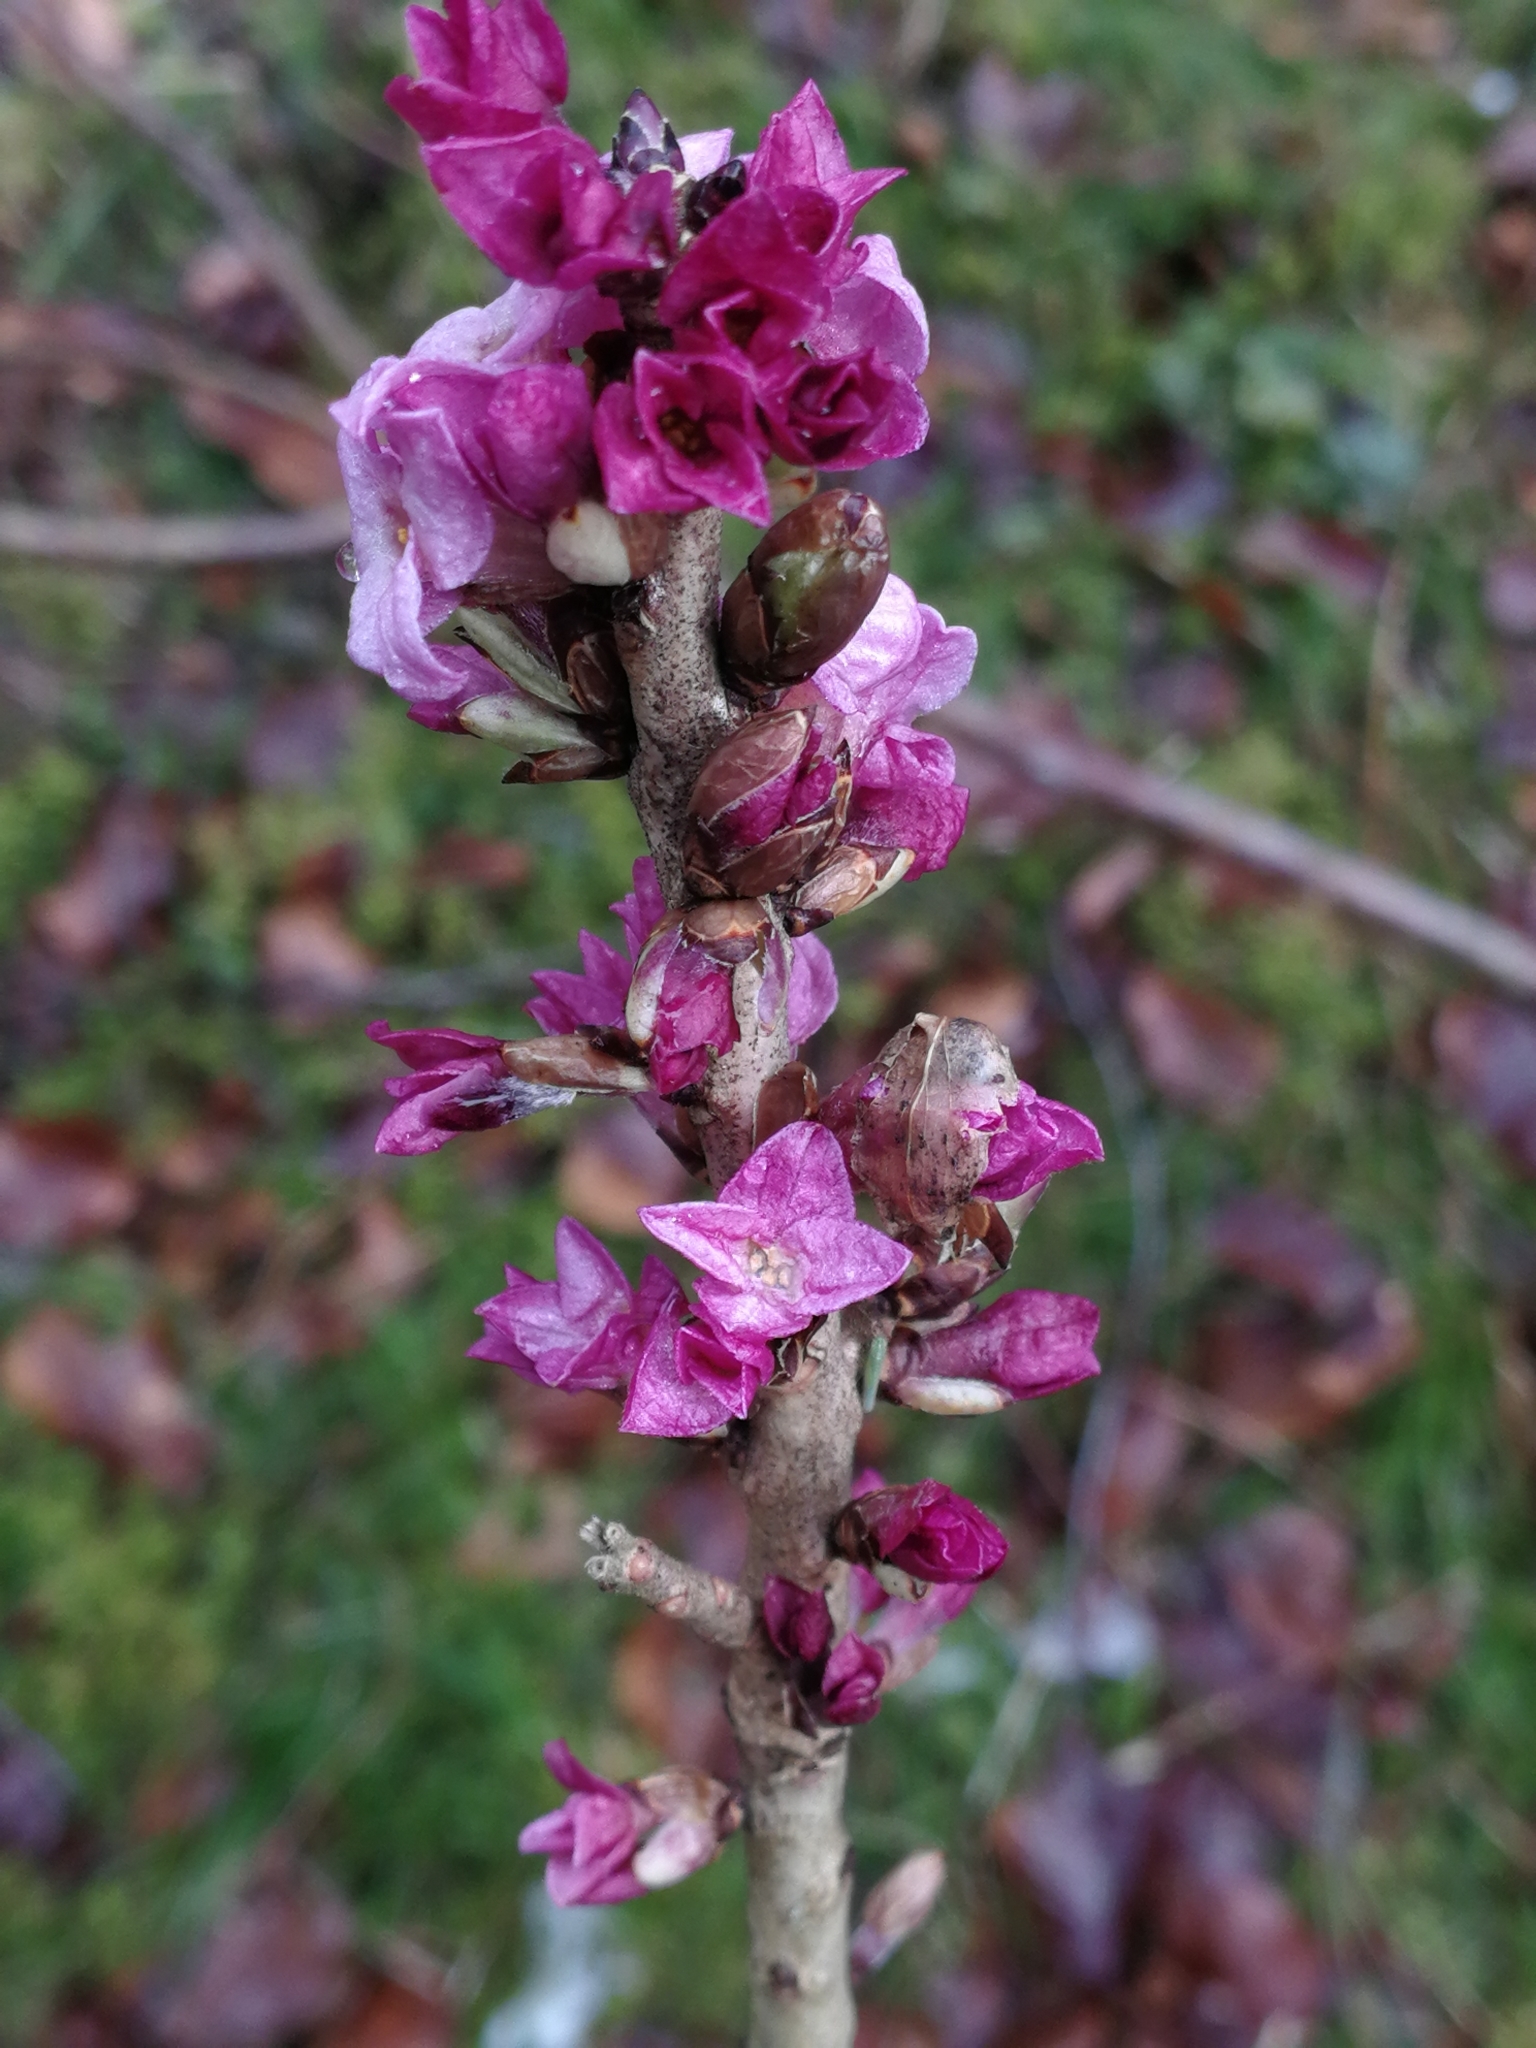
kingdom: Plantae
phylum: Tracheophyta
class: Magnoliopsida
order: Malvales
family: Thymelaeaceae
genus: Daphne
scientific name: Daphne mezereum
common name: Mezereon
